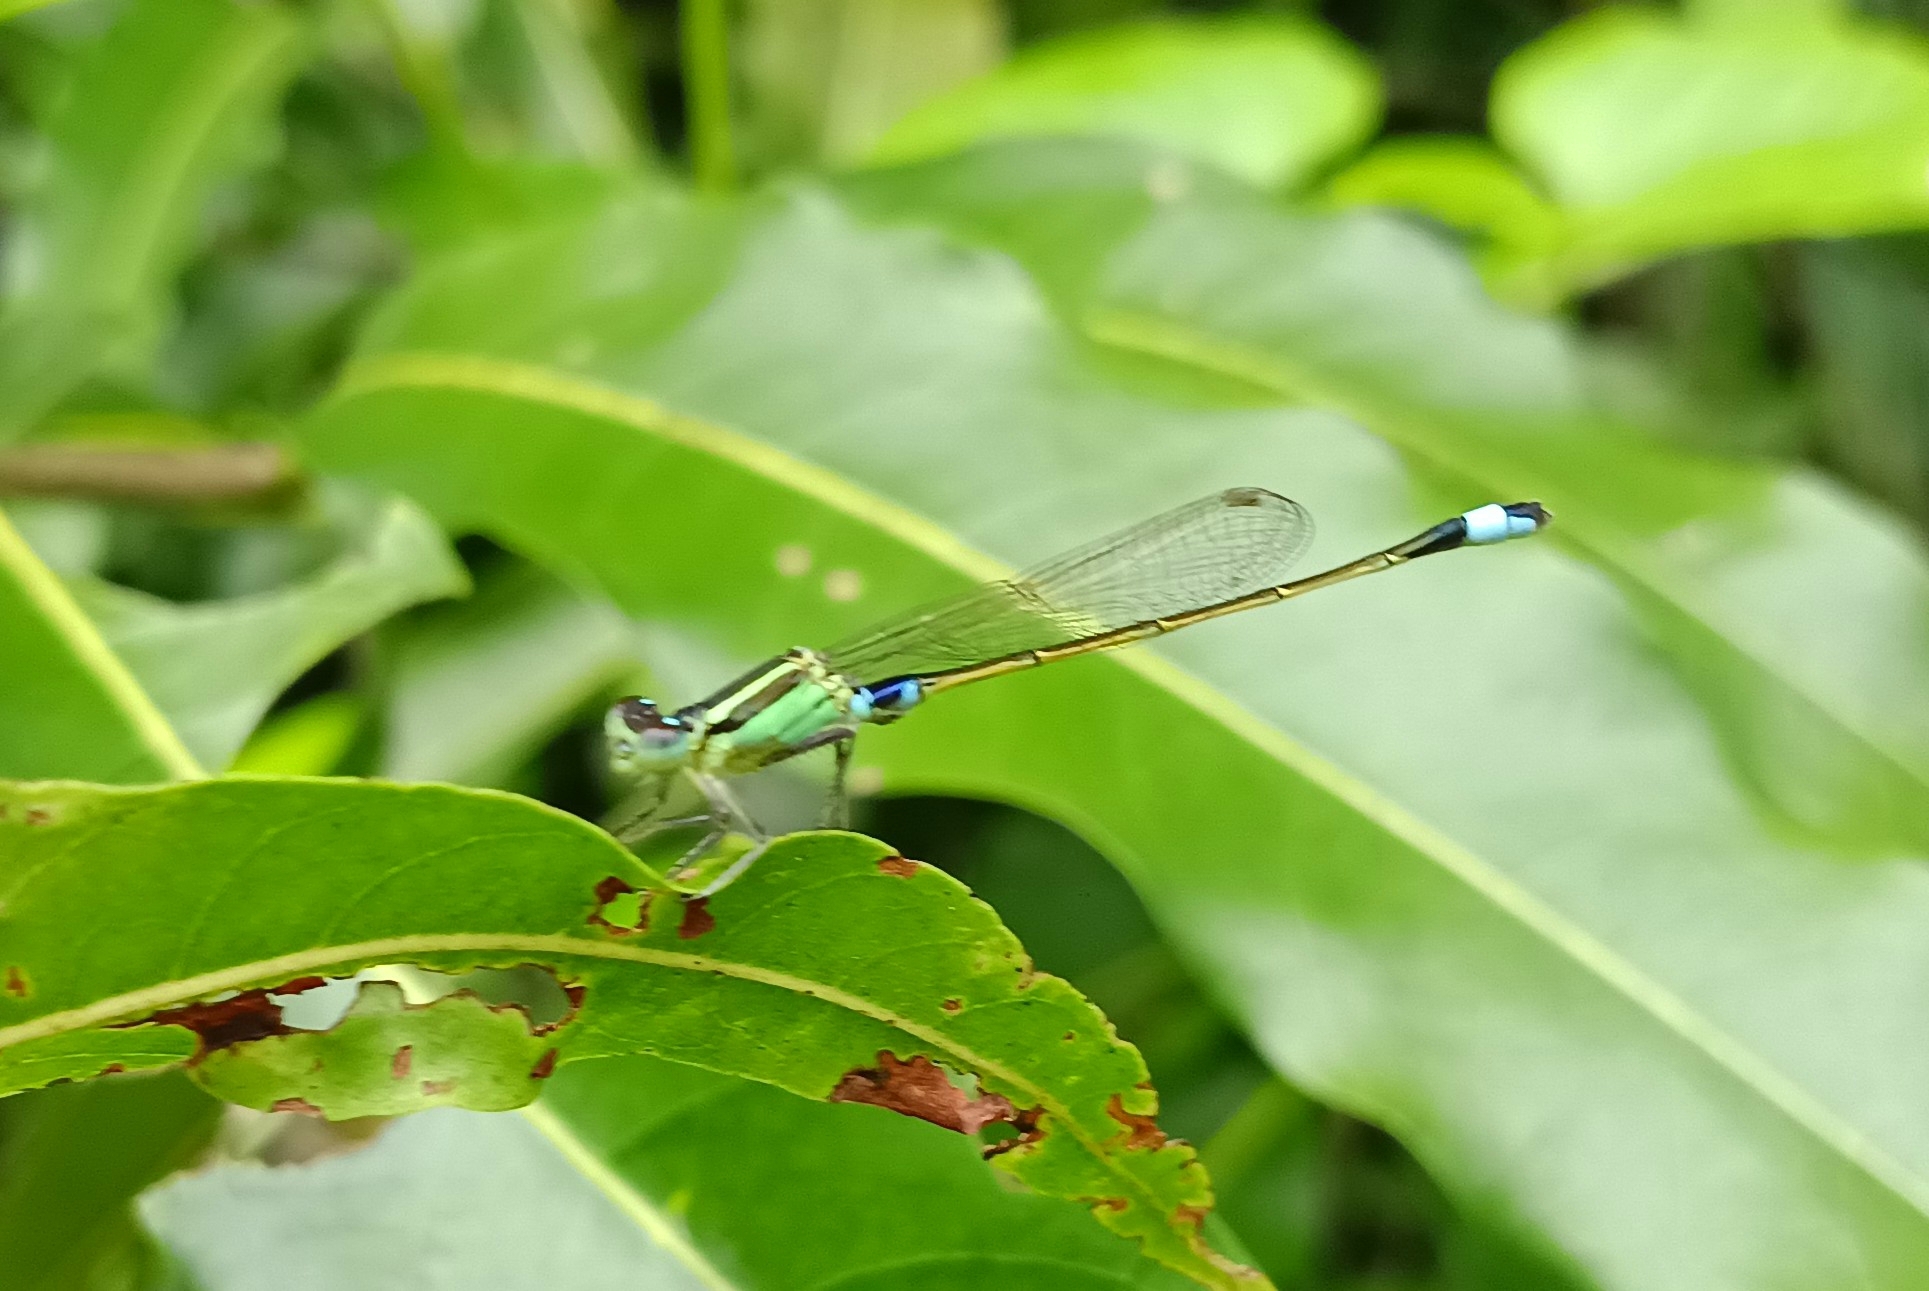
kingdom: Animalia
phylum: Arthropoda
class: Insecta
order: Odonata
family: Coenagrionidae
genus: Ischnura
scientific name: Ischnura senegalensis
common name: Tropical bluetail
